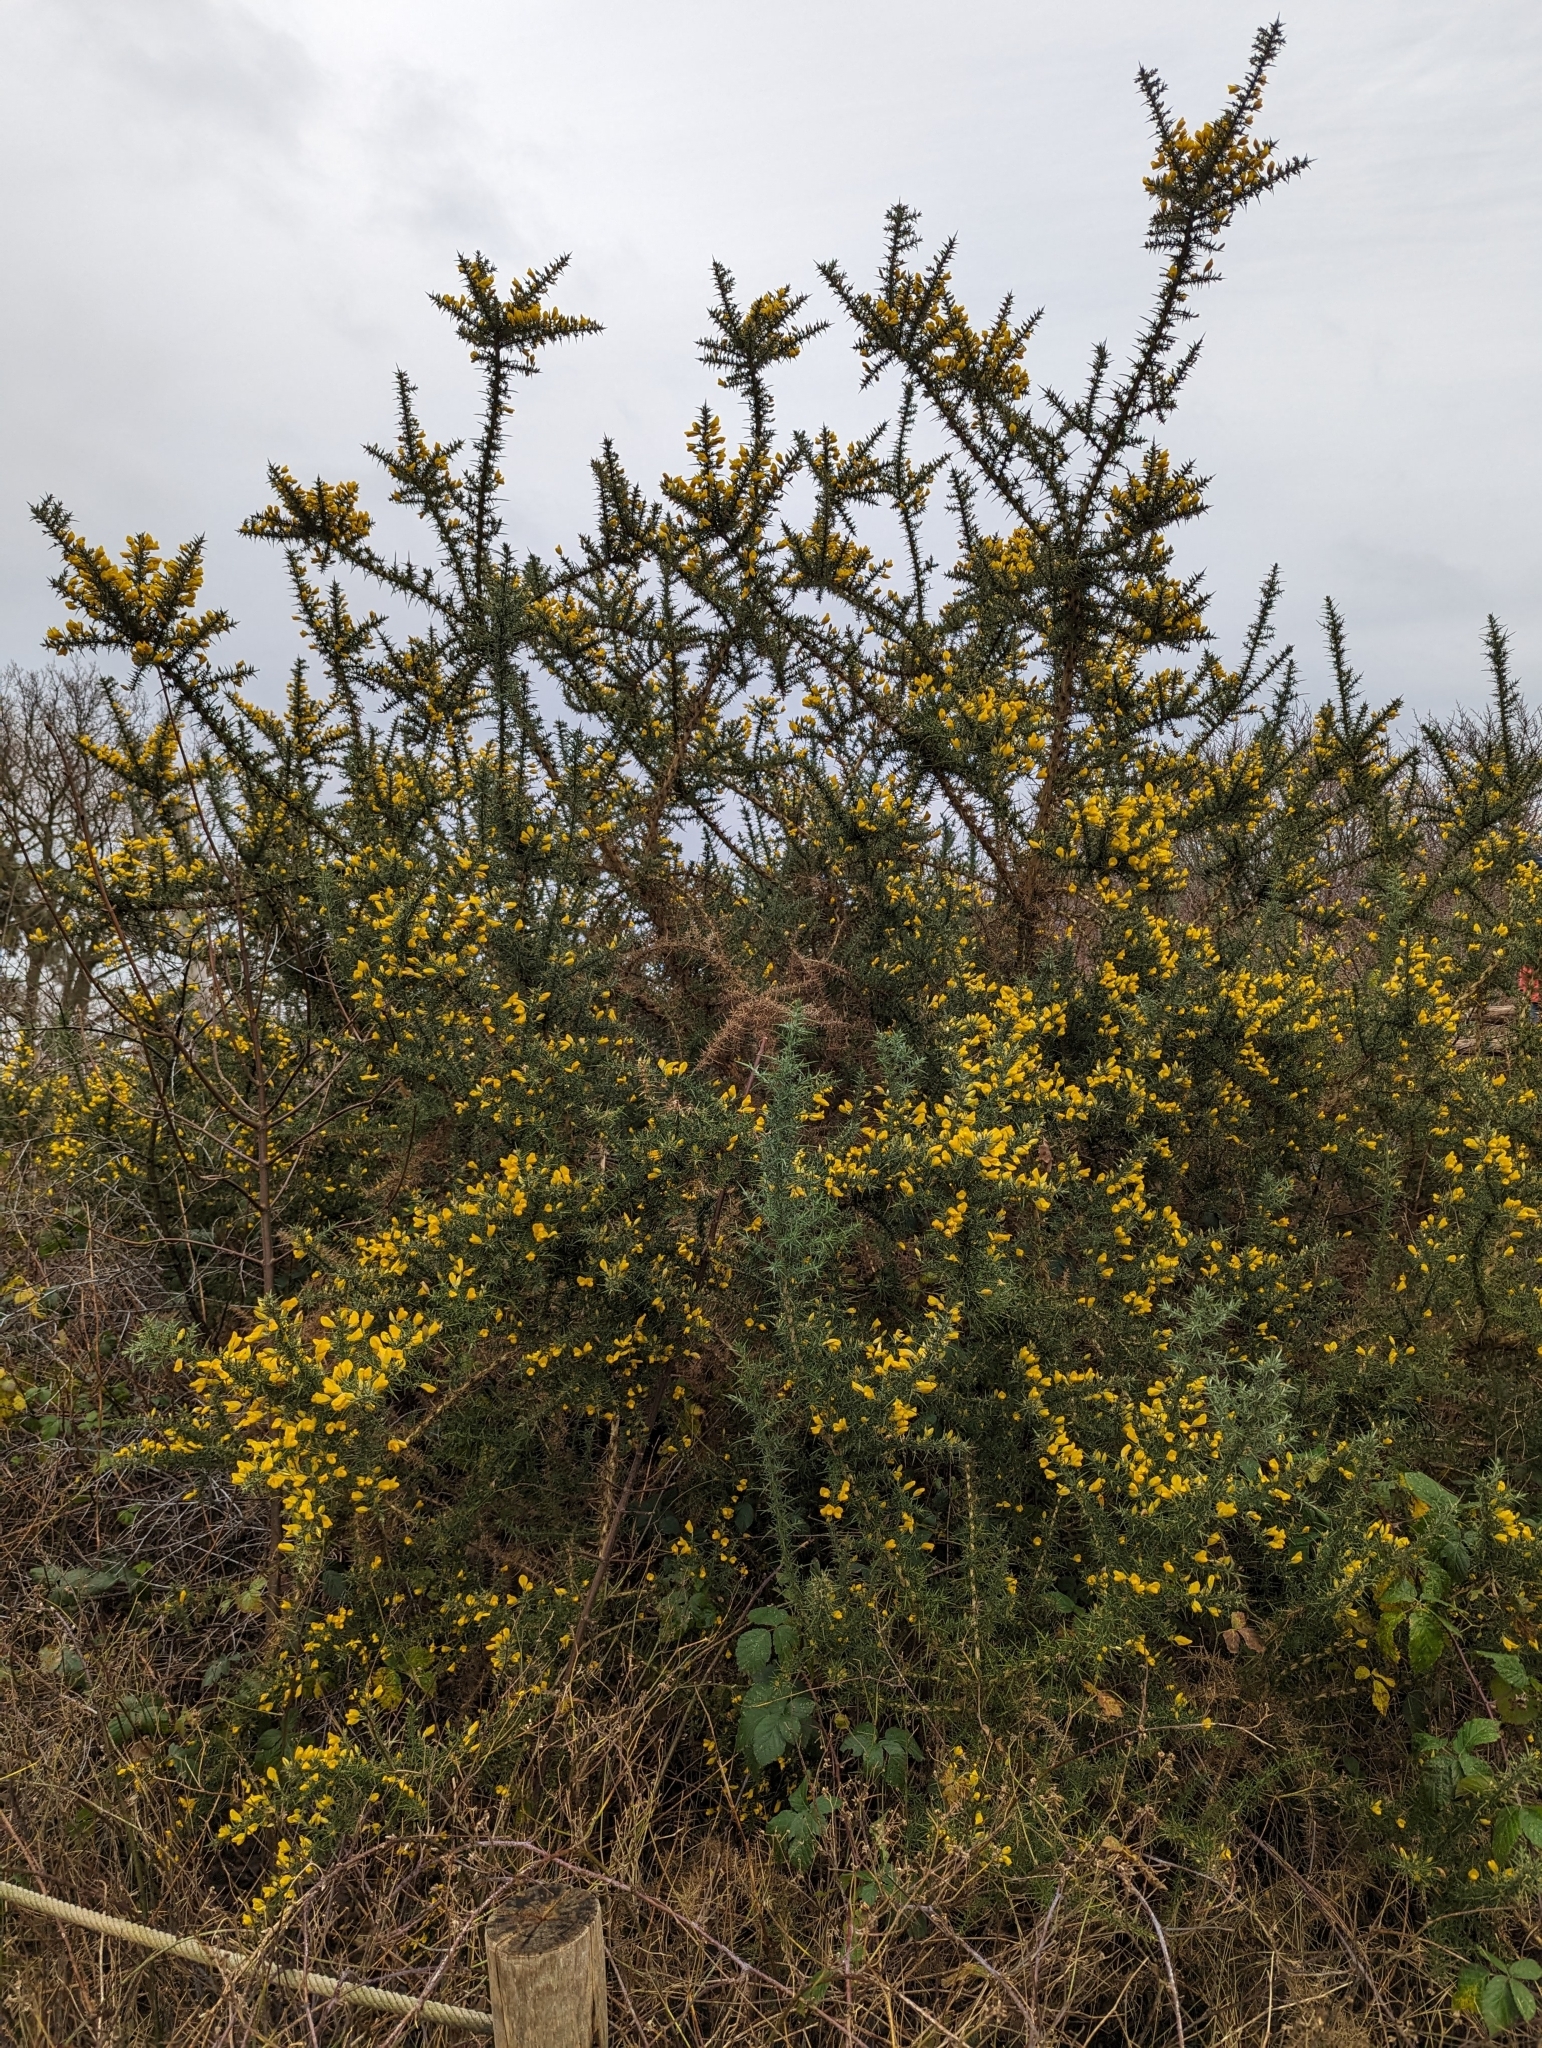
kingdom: Plantae
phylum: Tracheophyta
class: Magnoliopsida
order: Fabales
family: Fabaceae
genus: Ulex
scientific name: Ulex europaeus
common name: Common gorse
